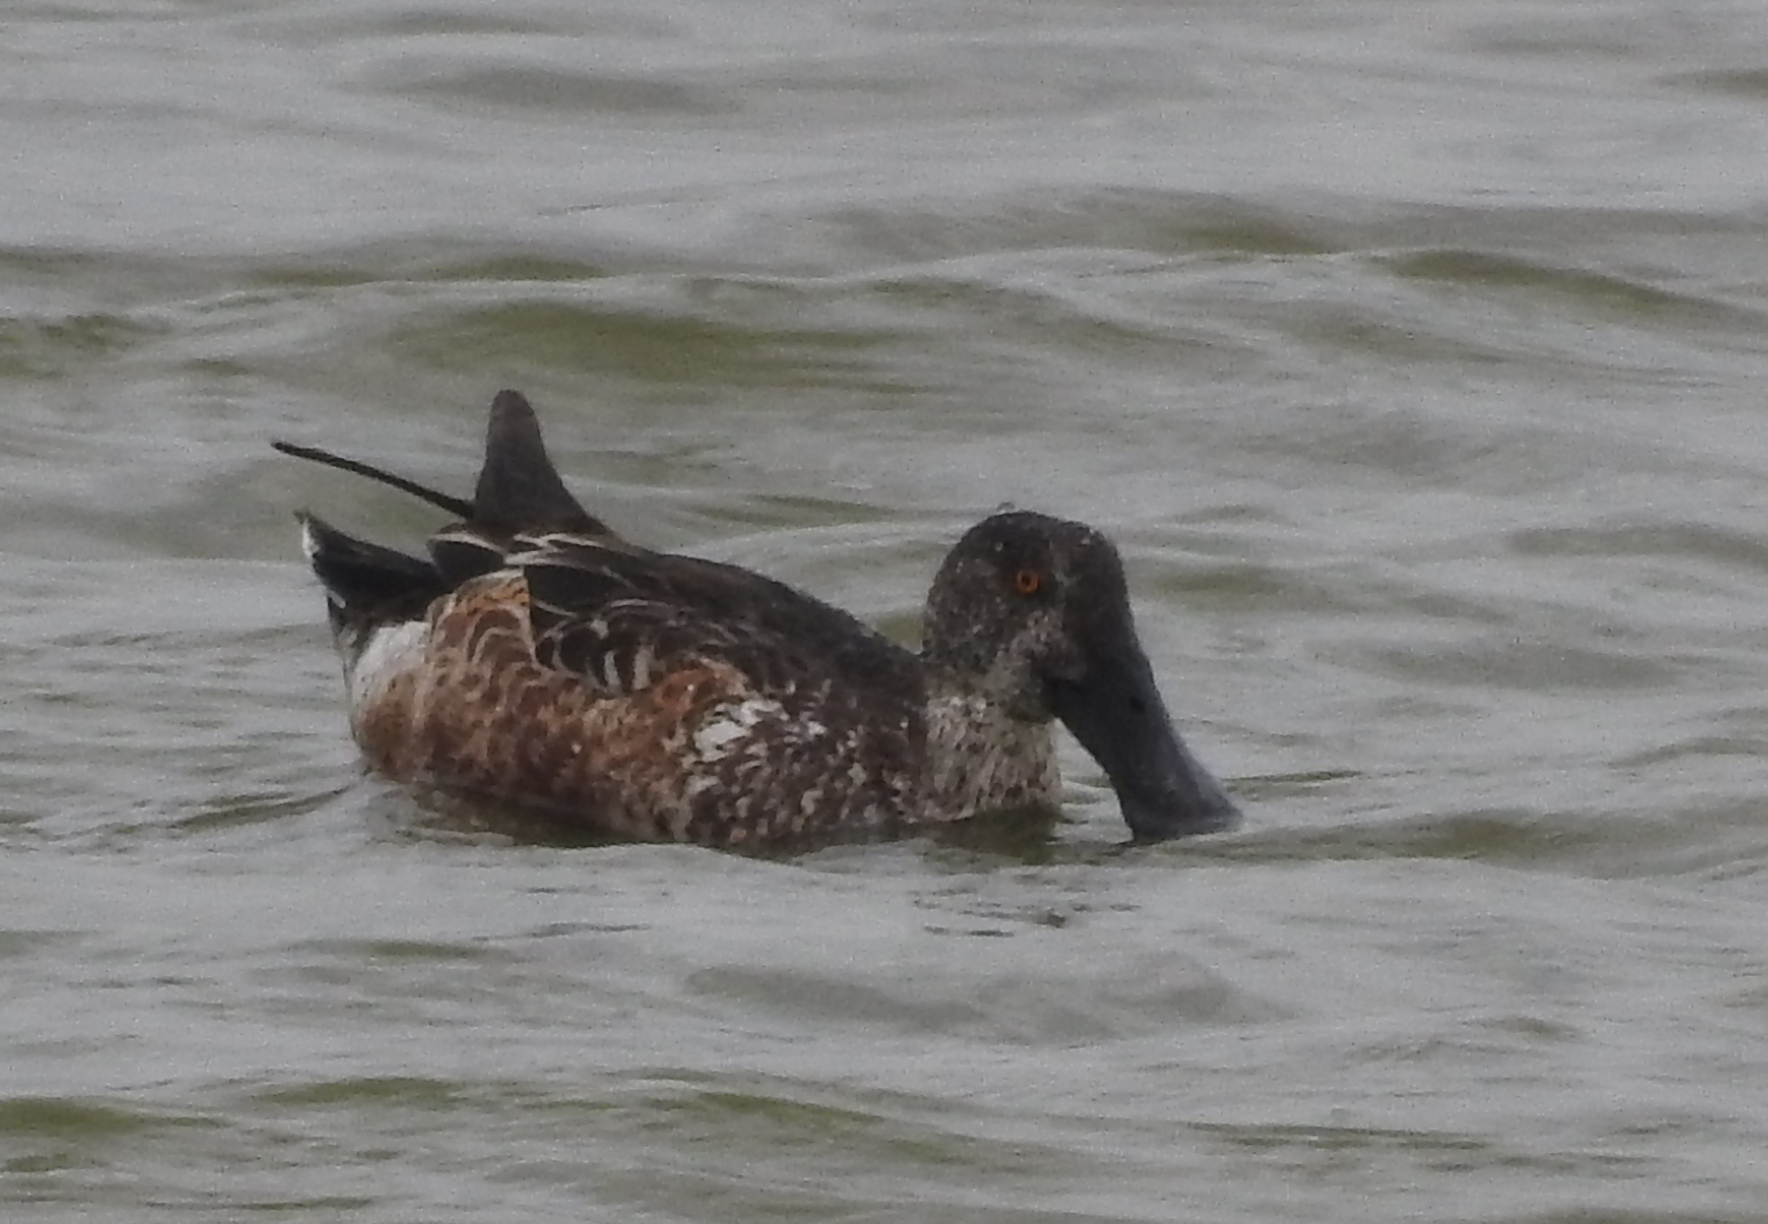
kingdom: Animalia
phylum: Chordata
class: Aves
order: Anseriformes
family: Anatidae
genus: Spatula
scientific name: Spatula clypeata
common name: Northern shoveler
